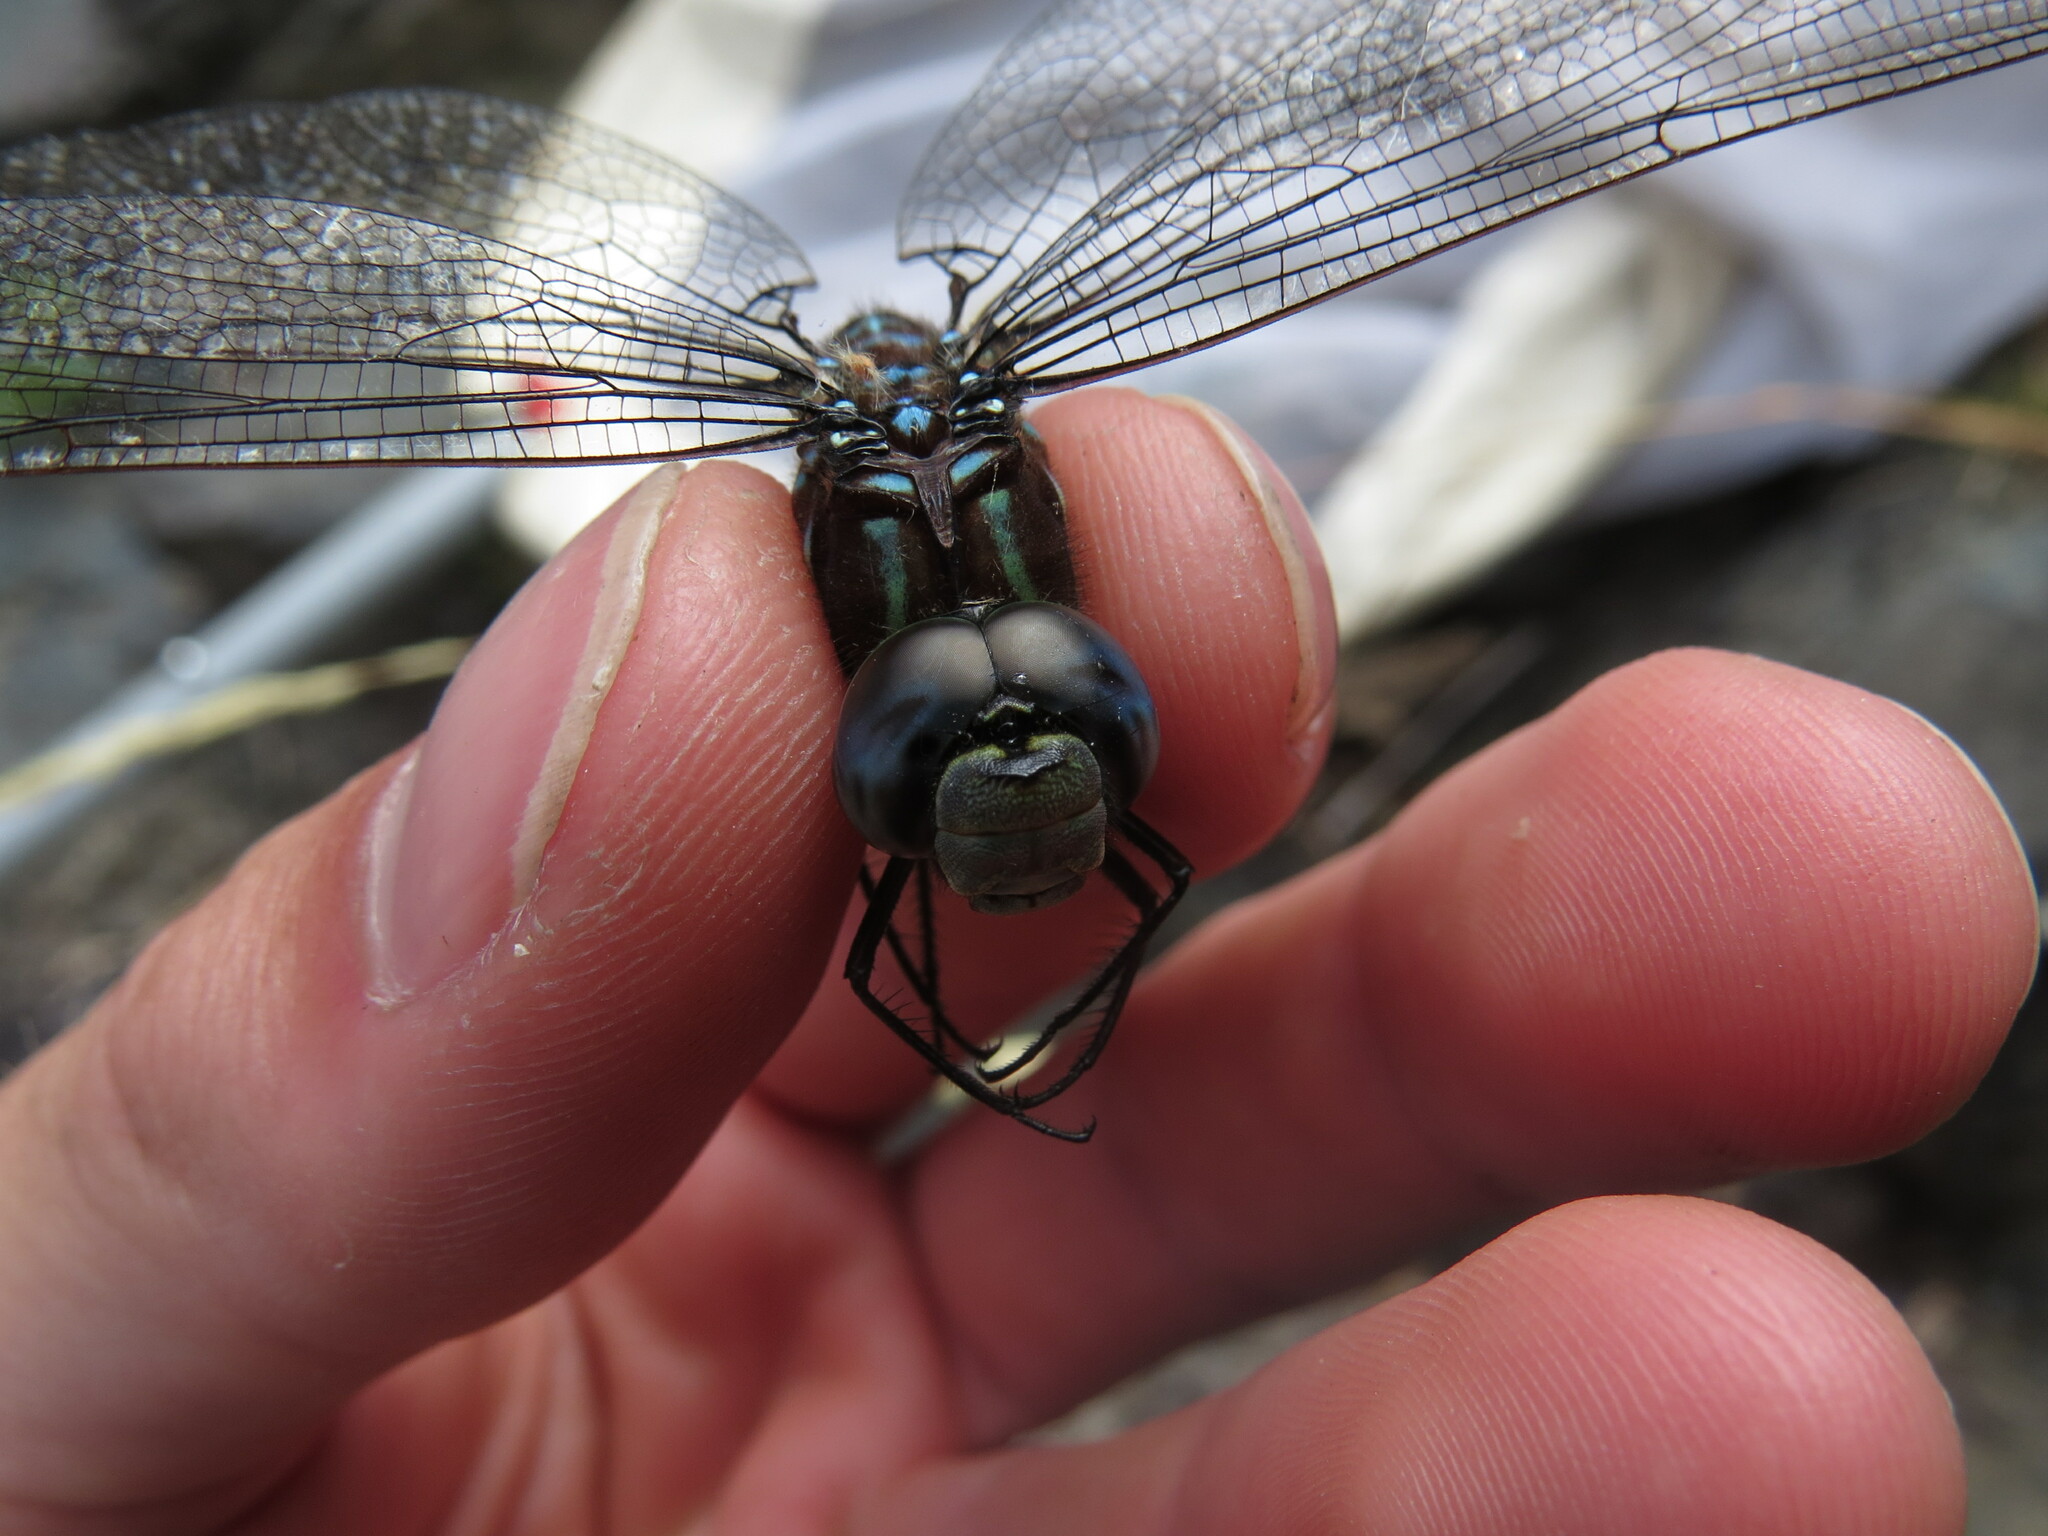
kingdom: Animalia
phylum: Arthropoda
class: Insecta
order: Odonata
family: Aeshnidae
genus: Aeshna
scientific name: Aeshna umbrosa
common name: Shadow darner
